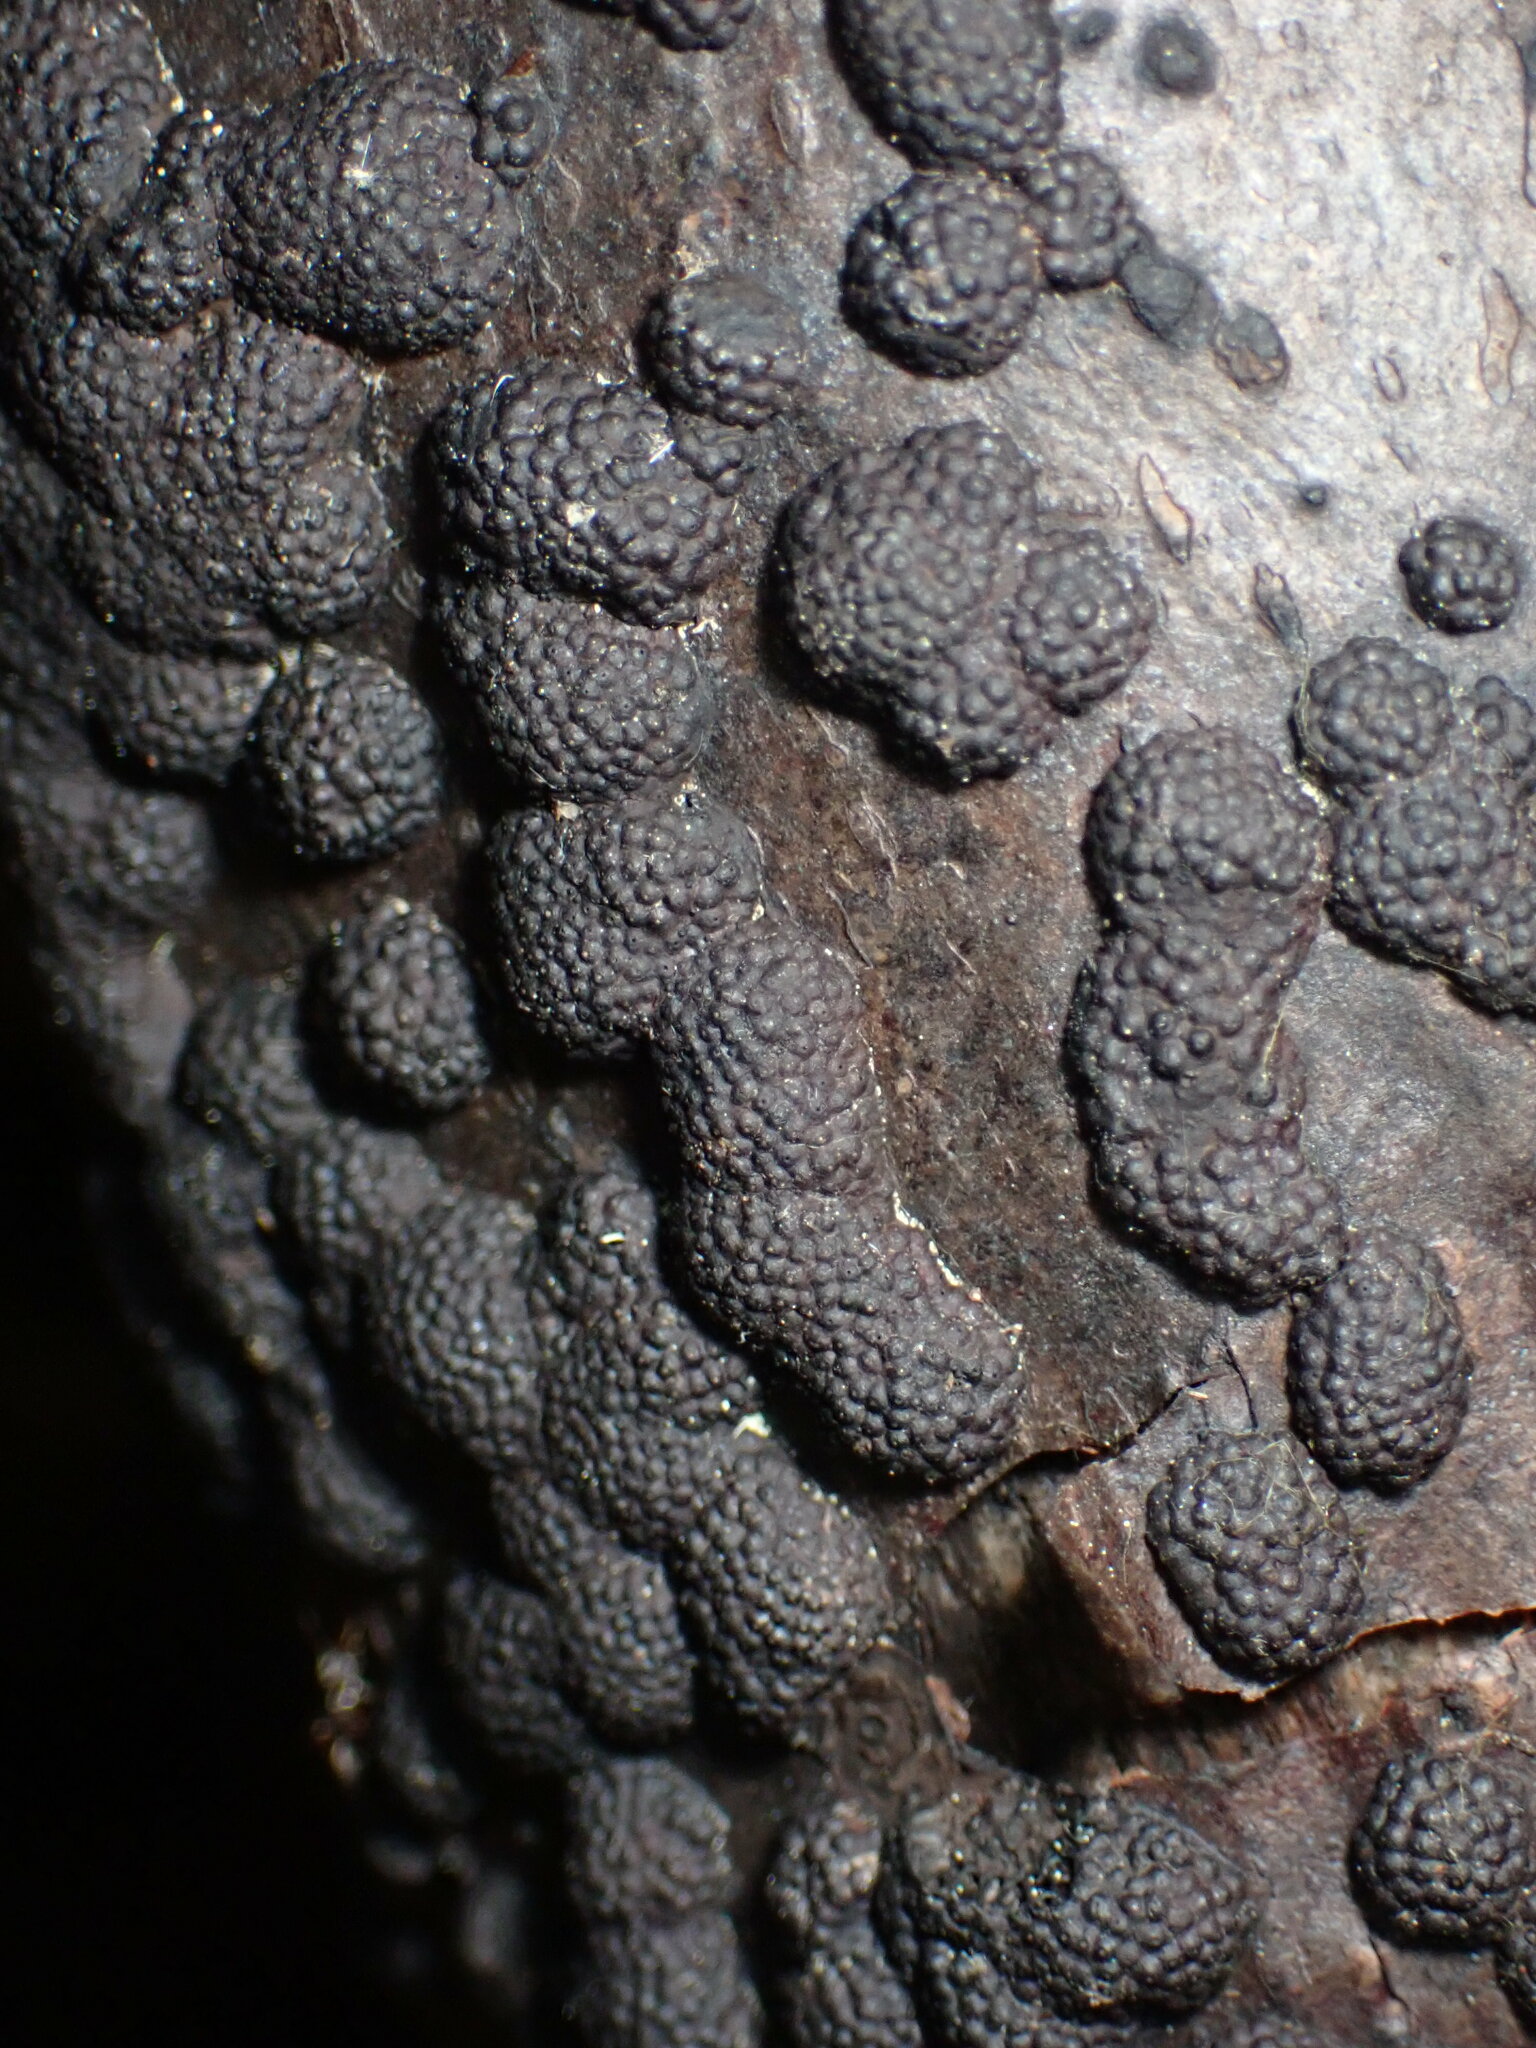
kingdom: Fungi
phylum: Ascomycota
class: Sordariomycetes
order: Xylariales
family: Hypoxylaceae
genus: Annulohypoxylon
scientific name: Annulohypoxylon annulatum
